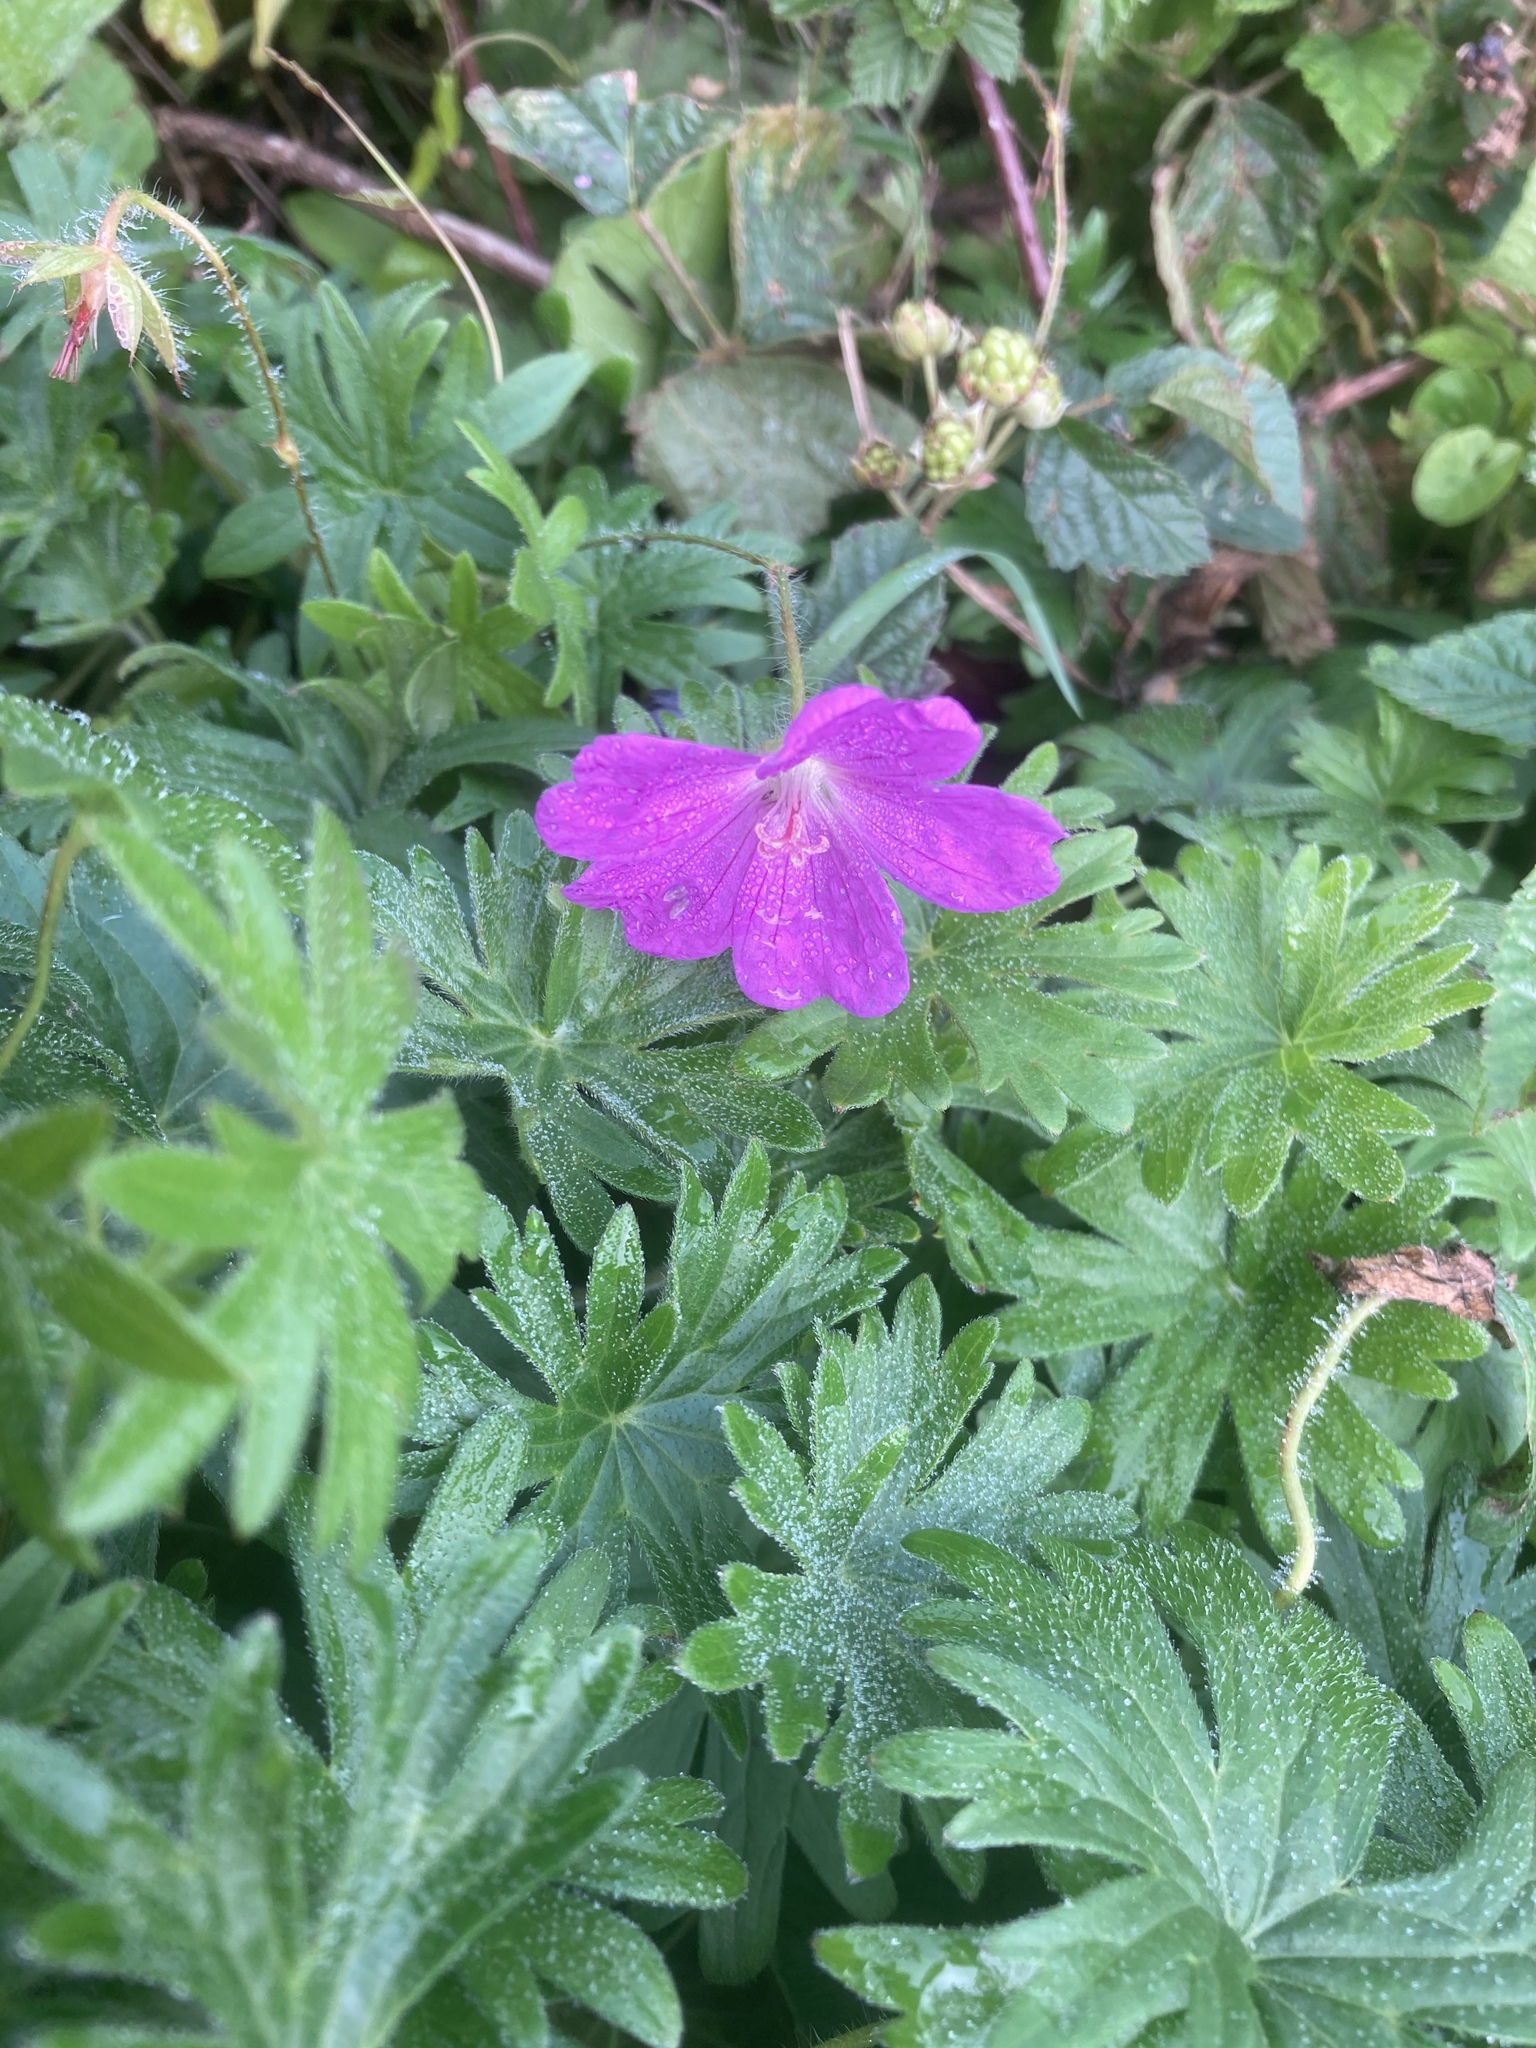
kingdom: Plantae
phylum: Tracheophyta
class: Magnoliopsida
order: Geraniales
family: Geraniaceae
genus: Geranium
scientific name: Geranium sanguineum
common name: Bloody crane's-bill
